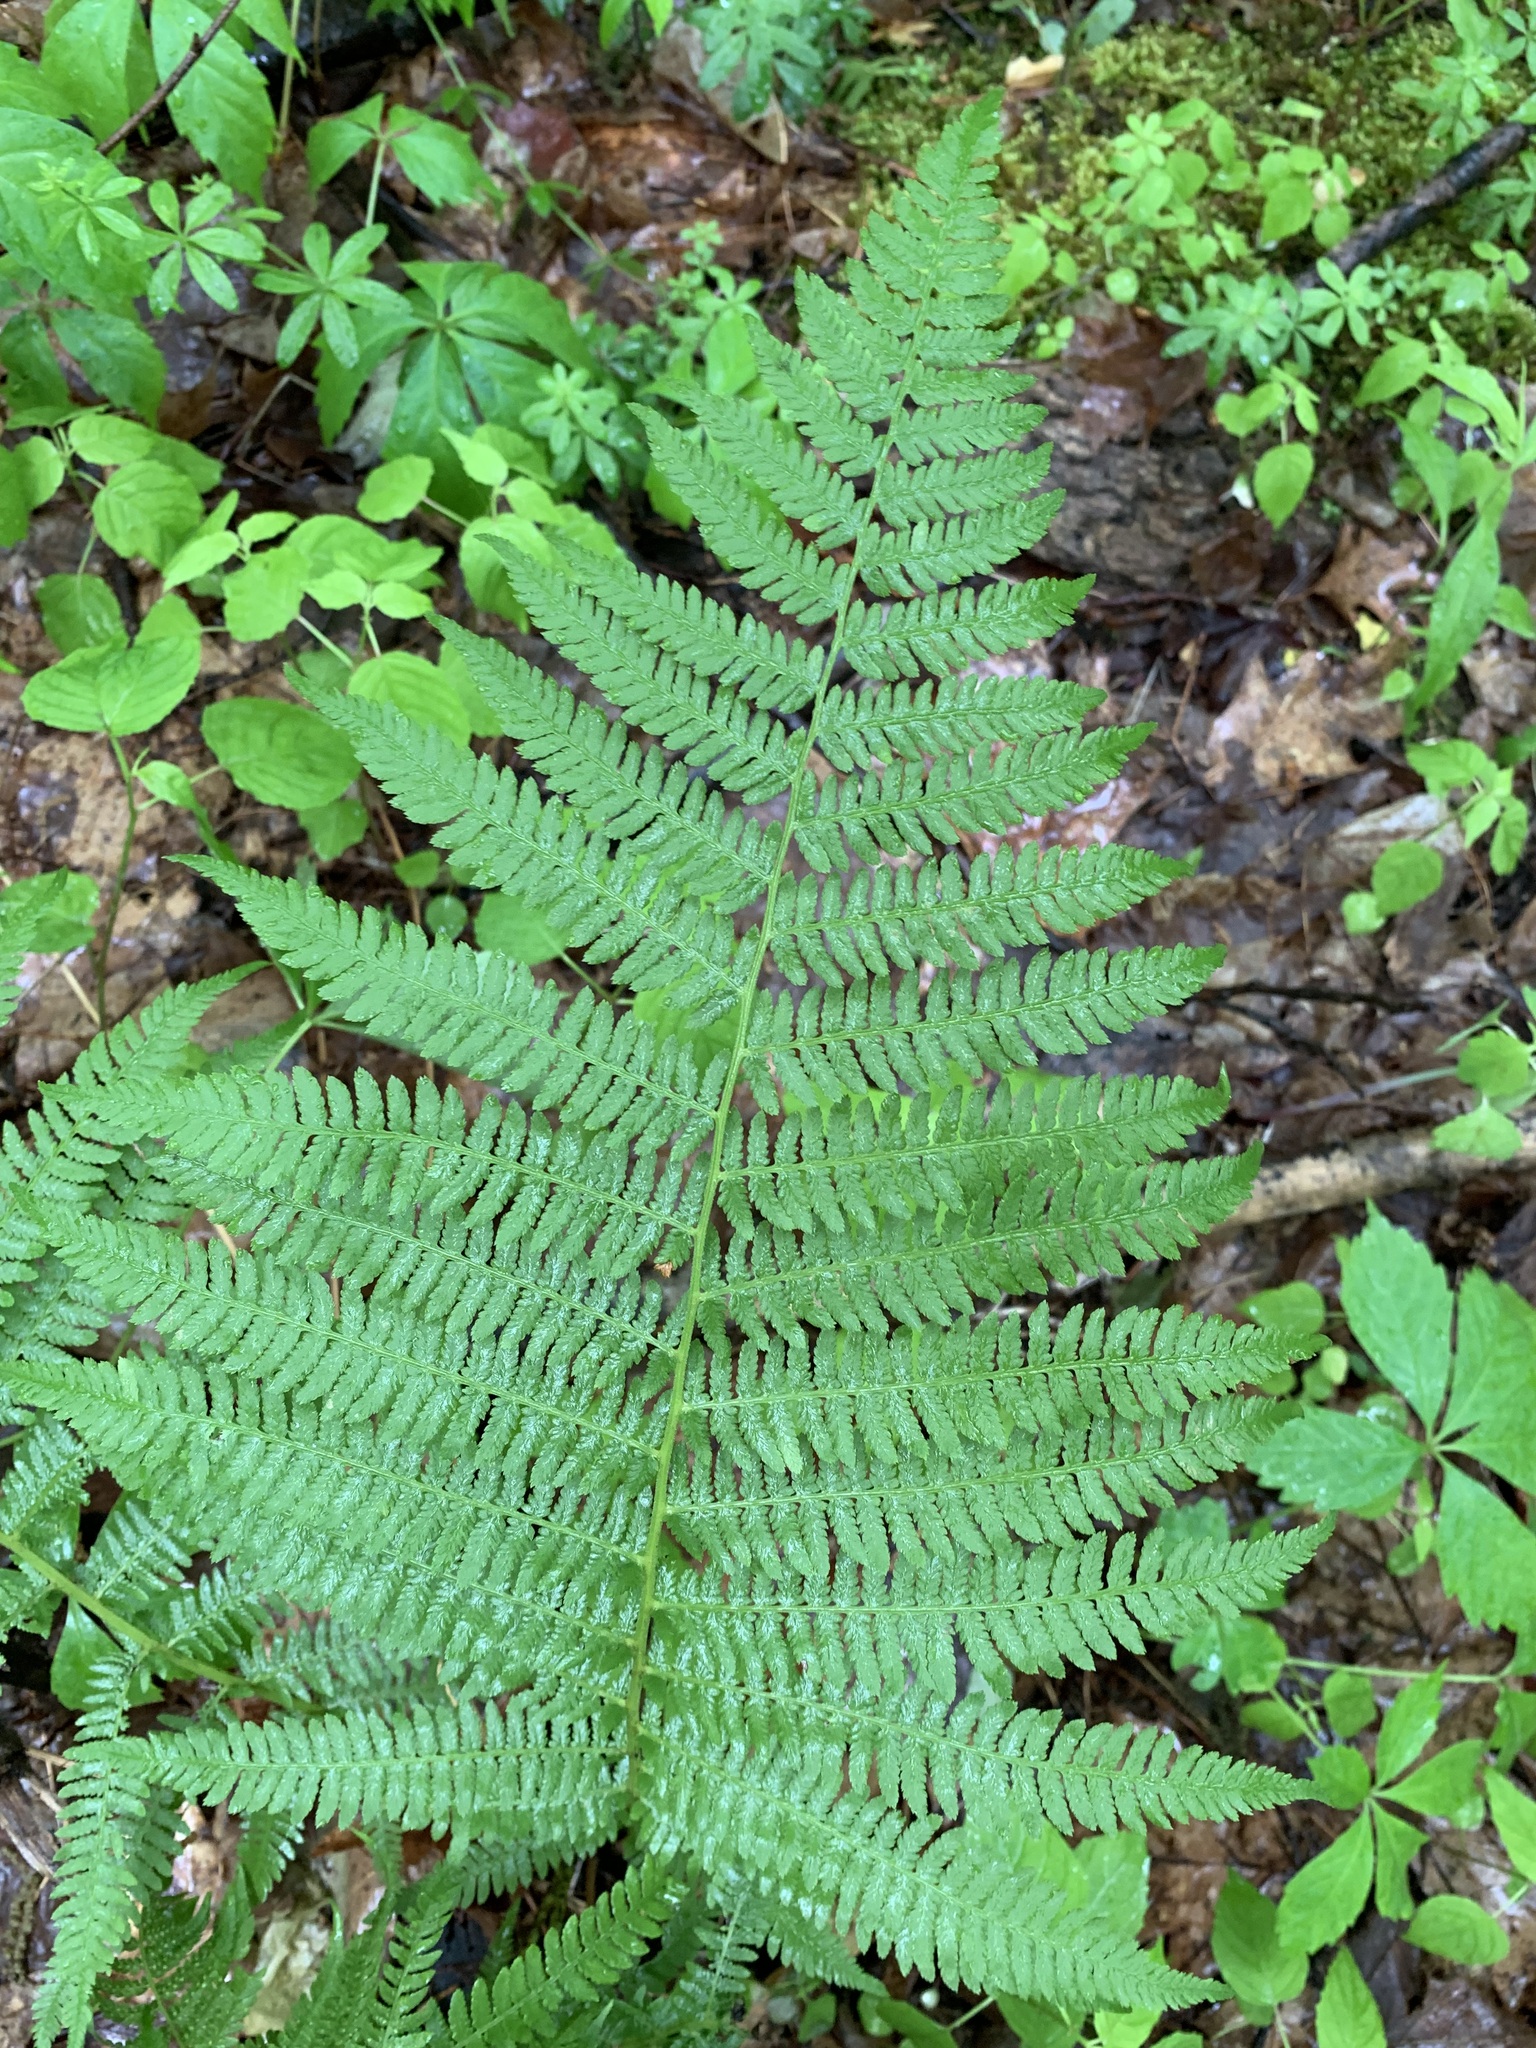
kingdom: Plantae
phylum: Tracheophyta
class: Polypodiopsida
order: Polypodiales
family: Athyriaceae
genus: Athyrium
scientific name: Athyrium angustum
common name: Northern lady fern
